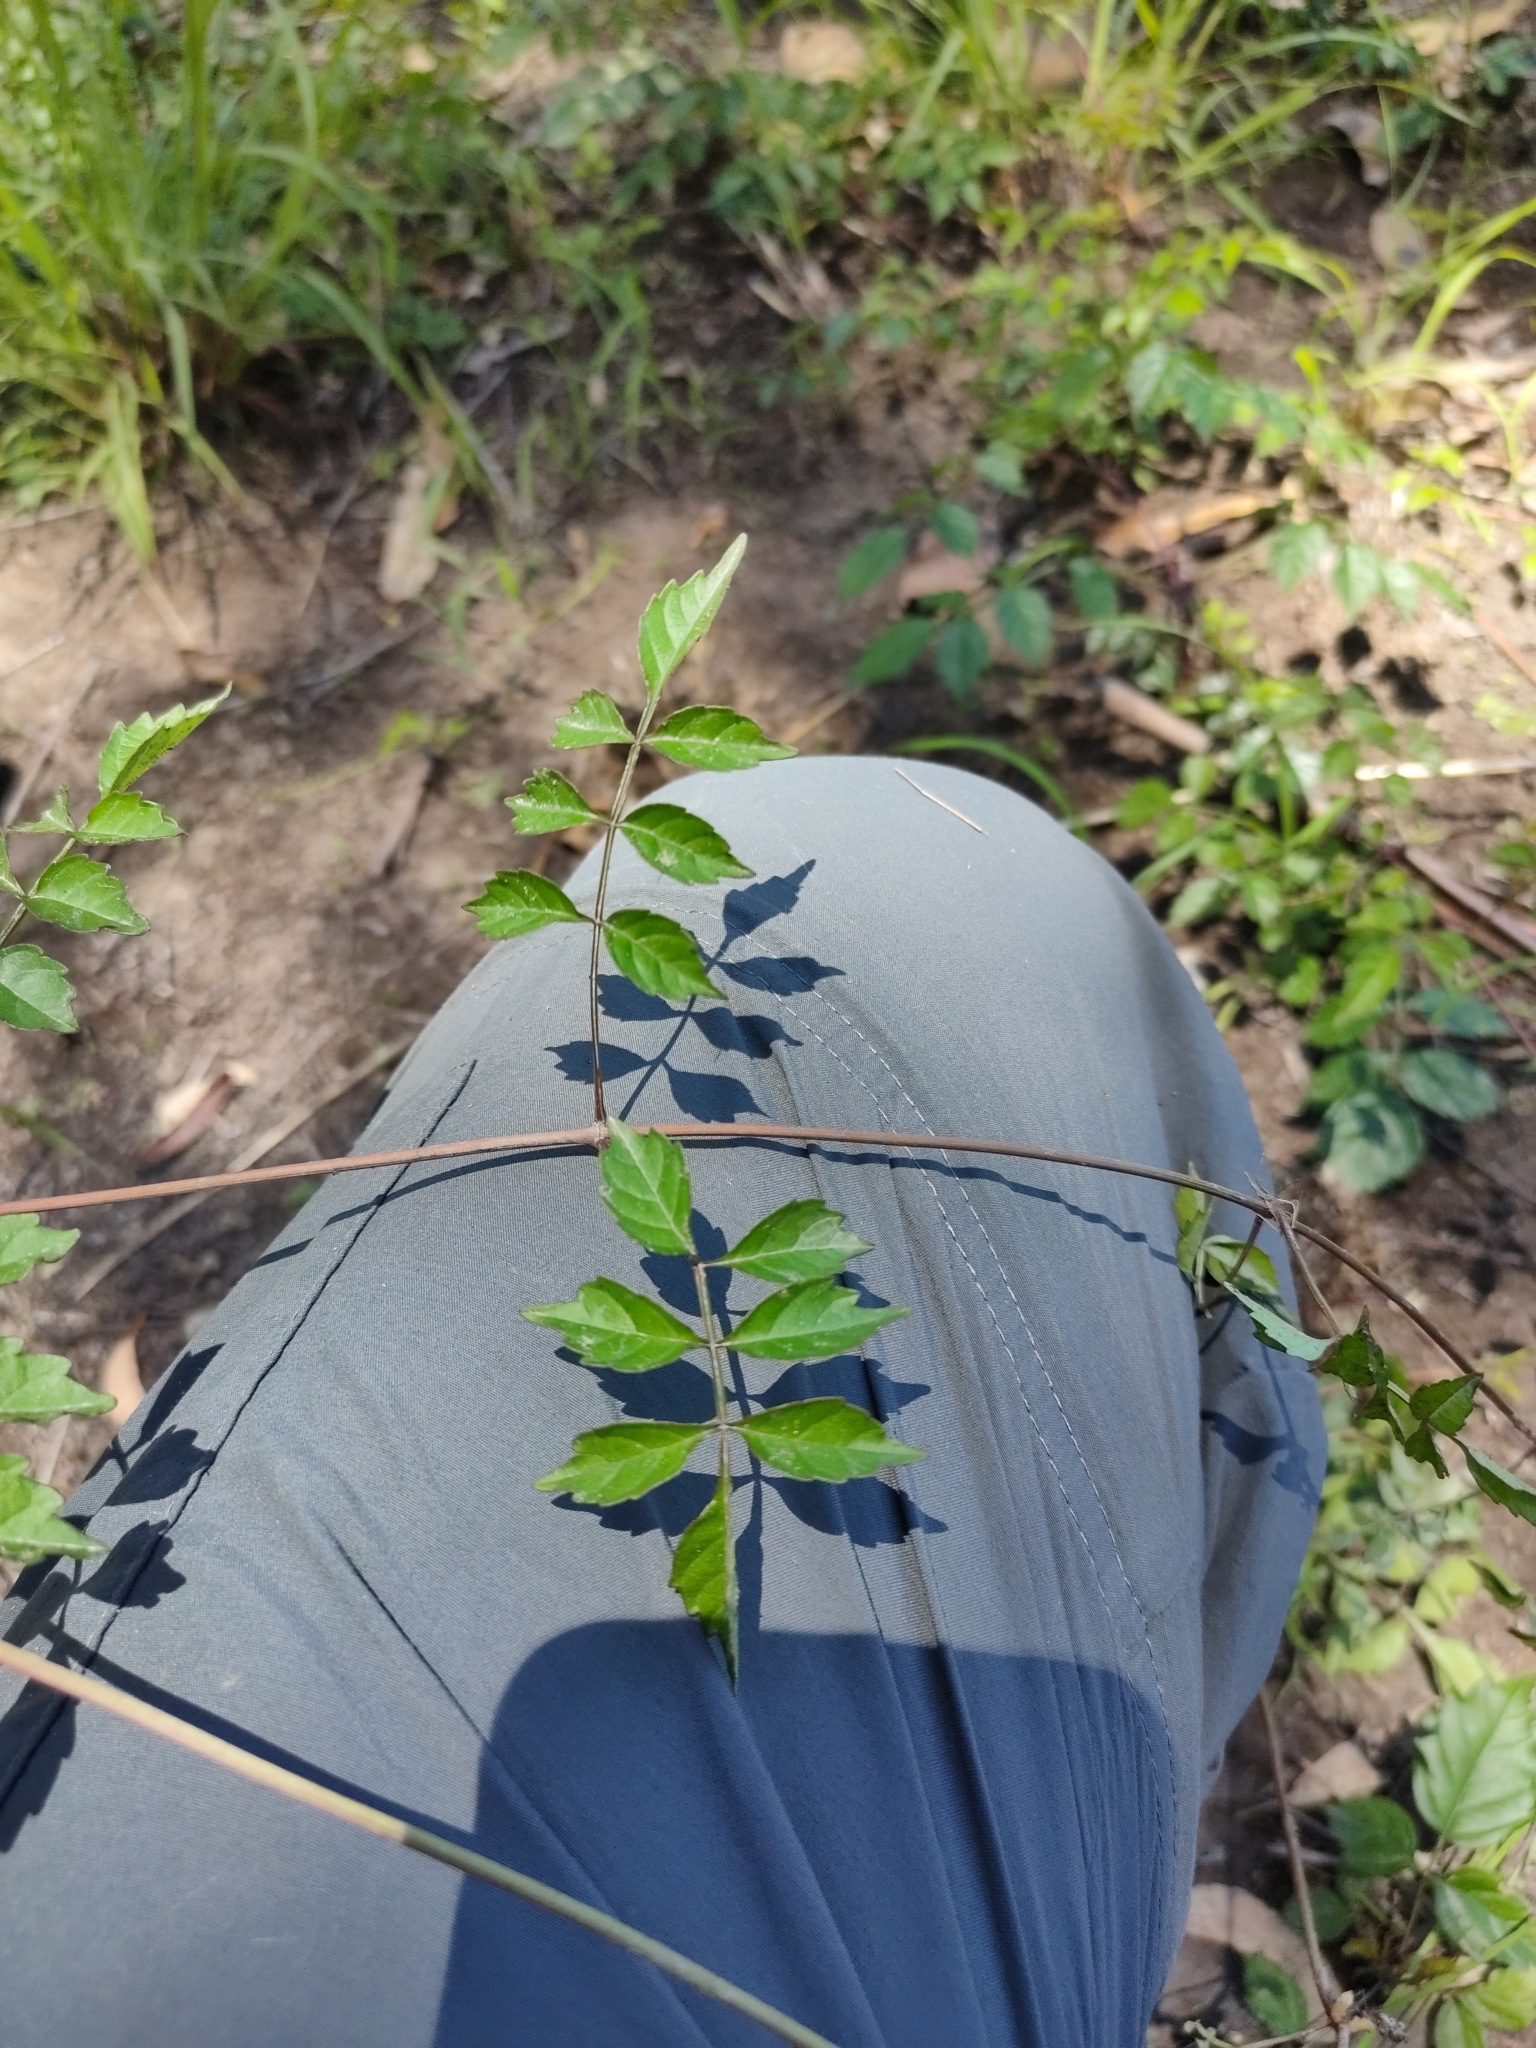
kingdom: Plantae
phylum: Tracheophyta
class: Magnoliopsida
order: Lamiales
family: Bignoniaceae
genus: Campsis
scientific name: Campsis radicans
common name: Trumpet-creeper
